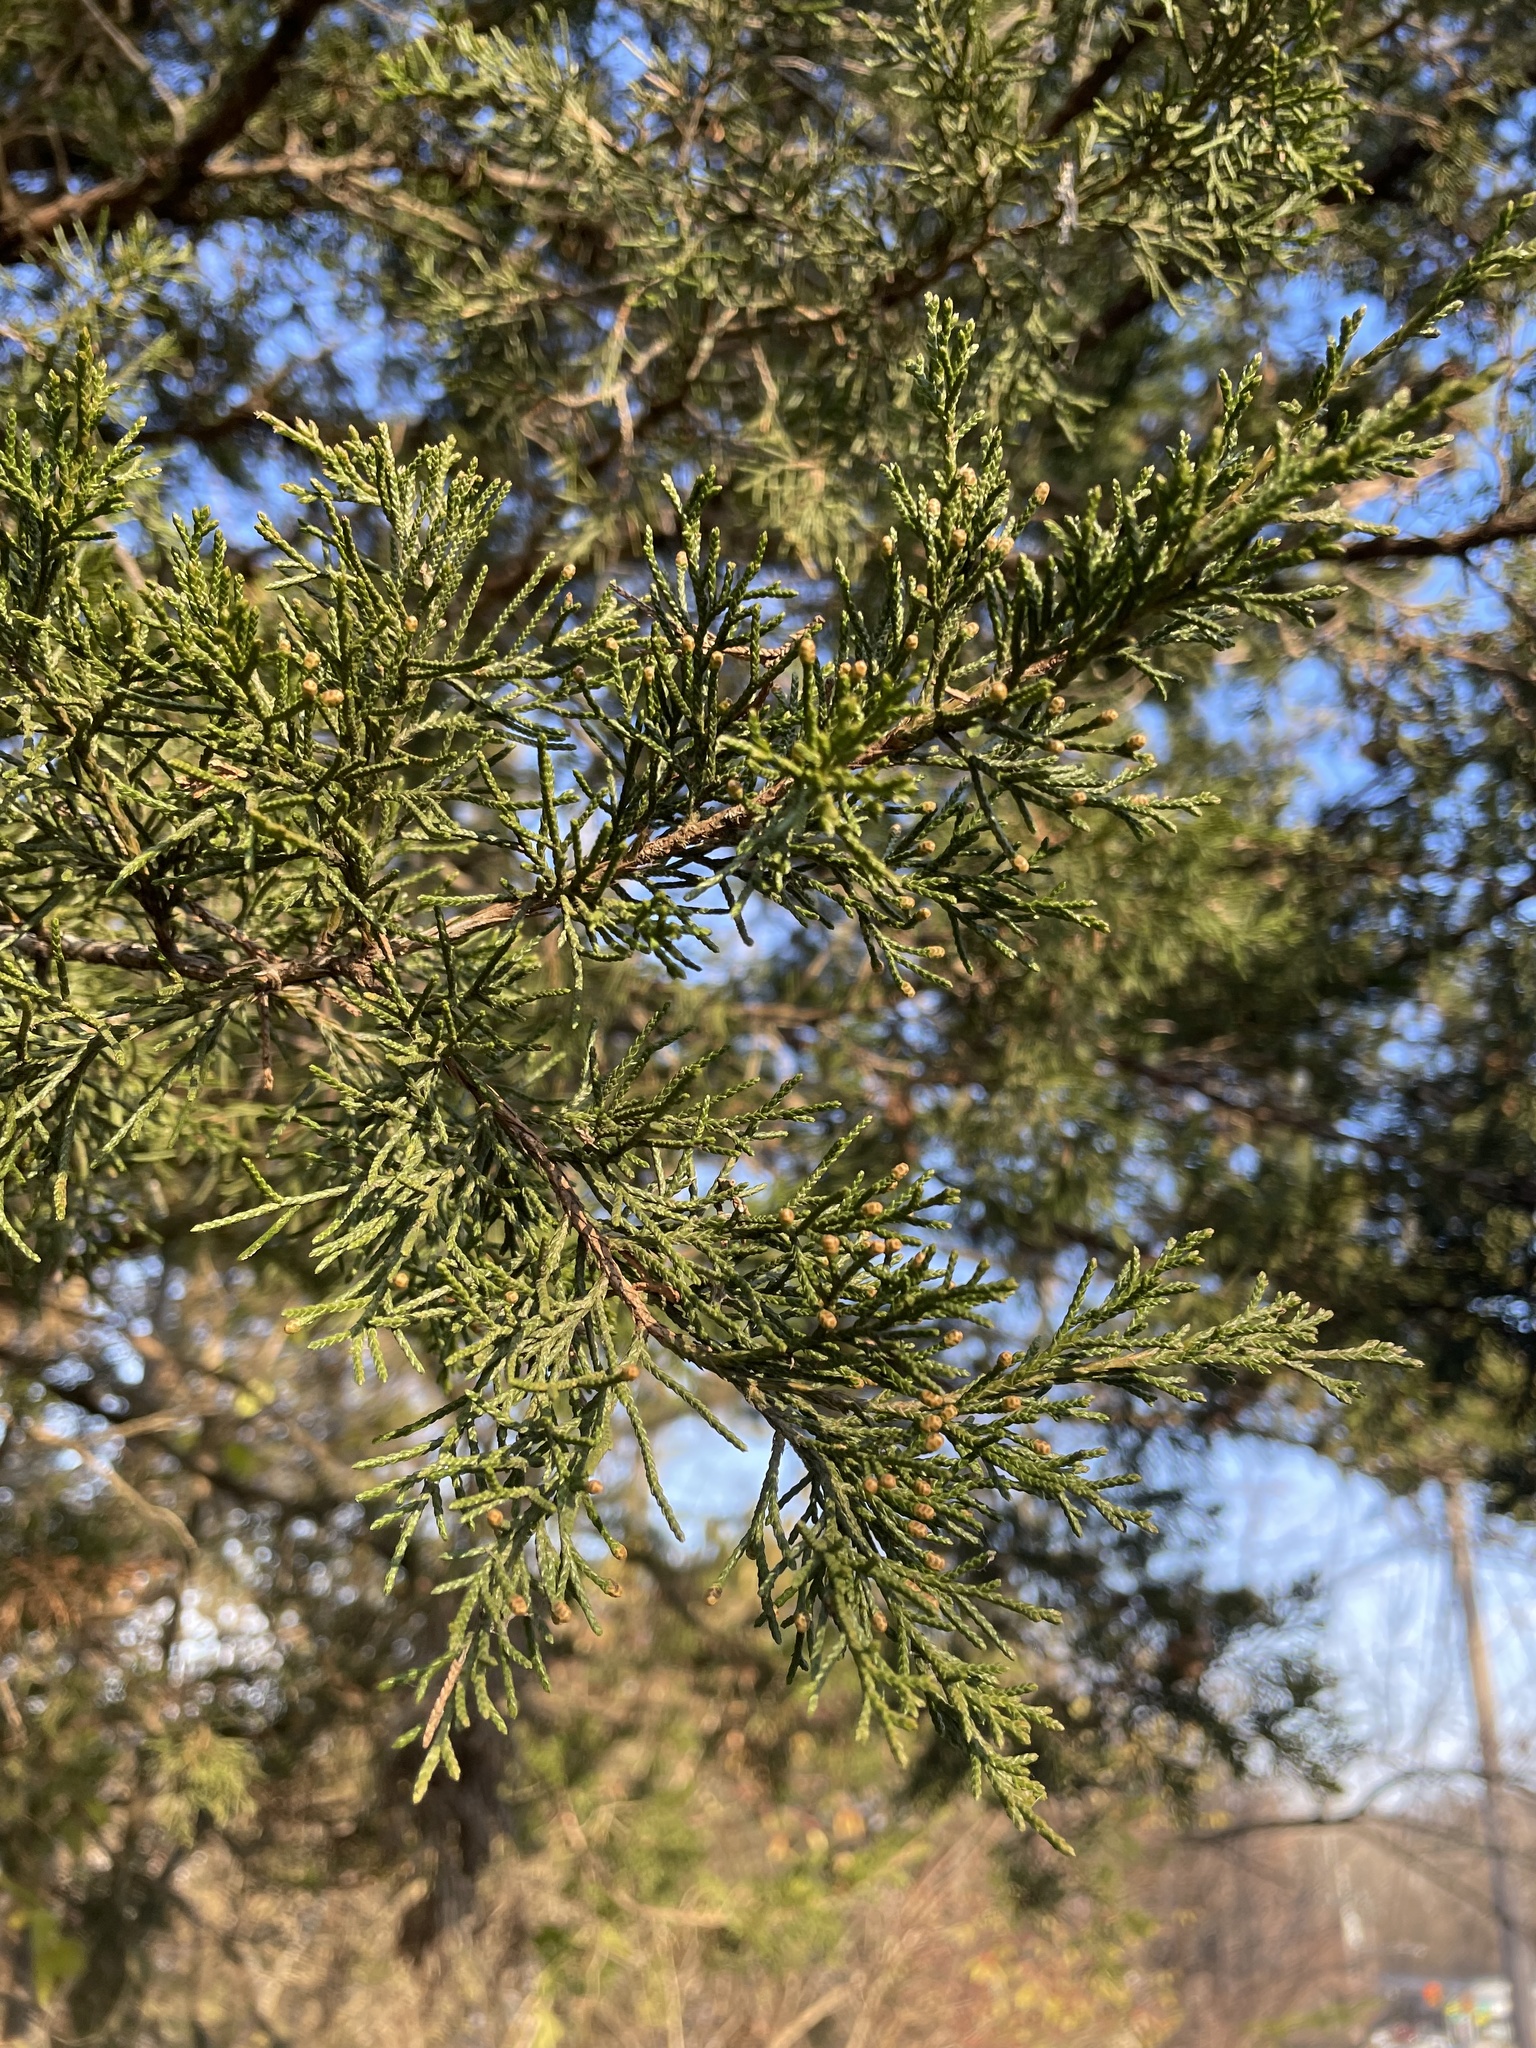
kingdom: Plantae
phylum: Tracheophyta
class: Pinopsida
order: Pinales
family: Cupressaceae
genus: Juniperus
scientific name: Juniperus virginiana
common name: Red juniper
